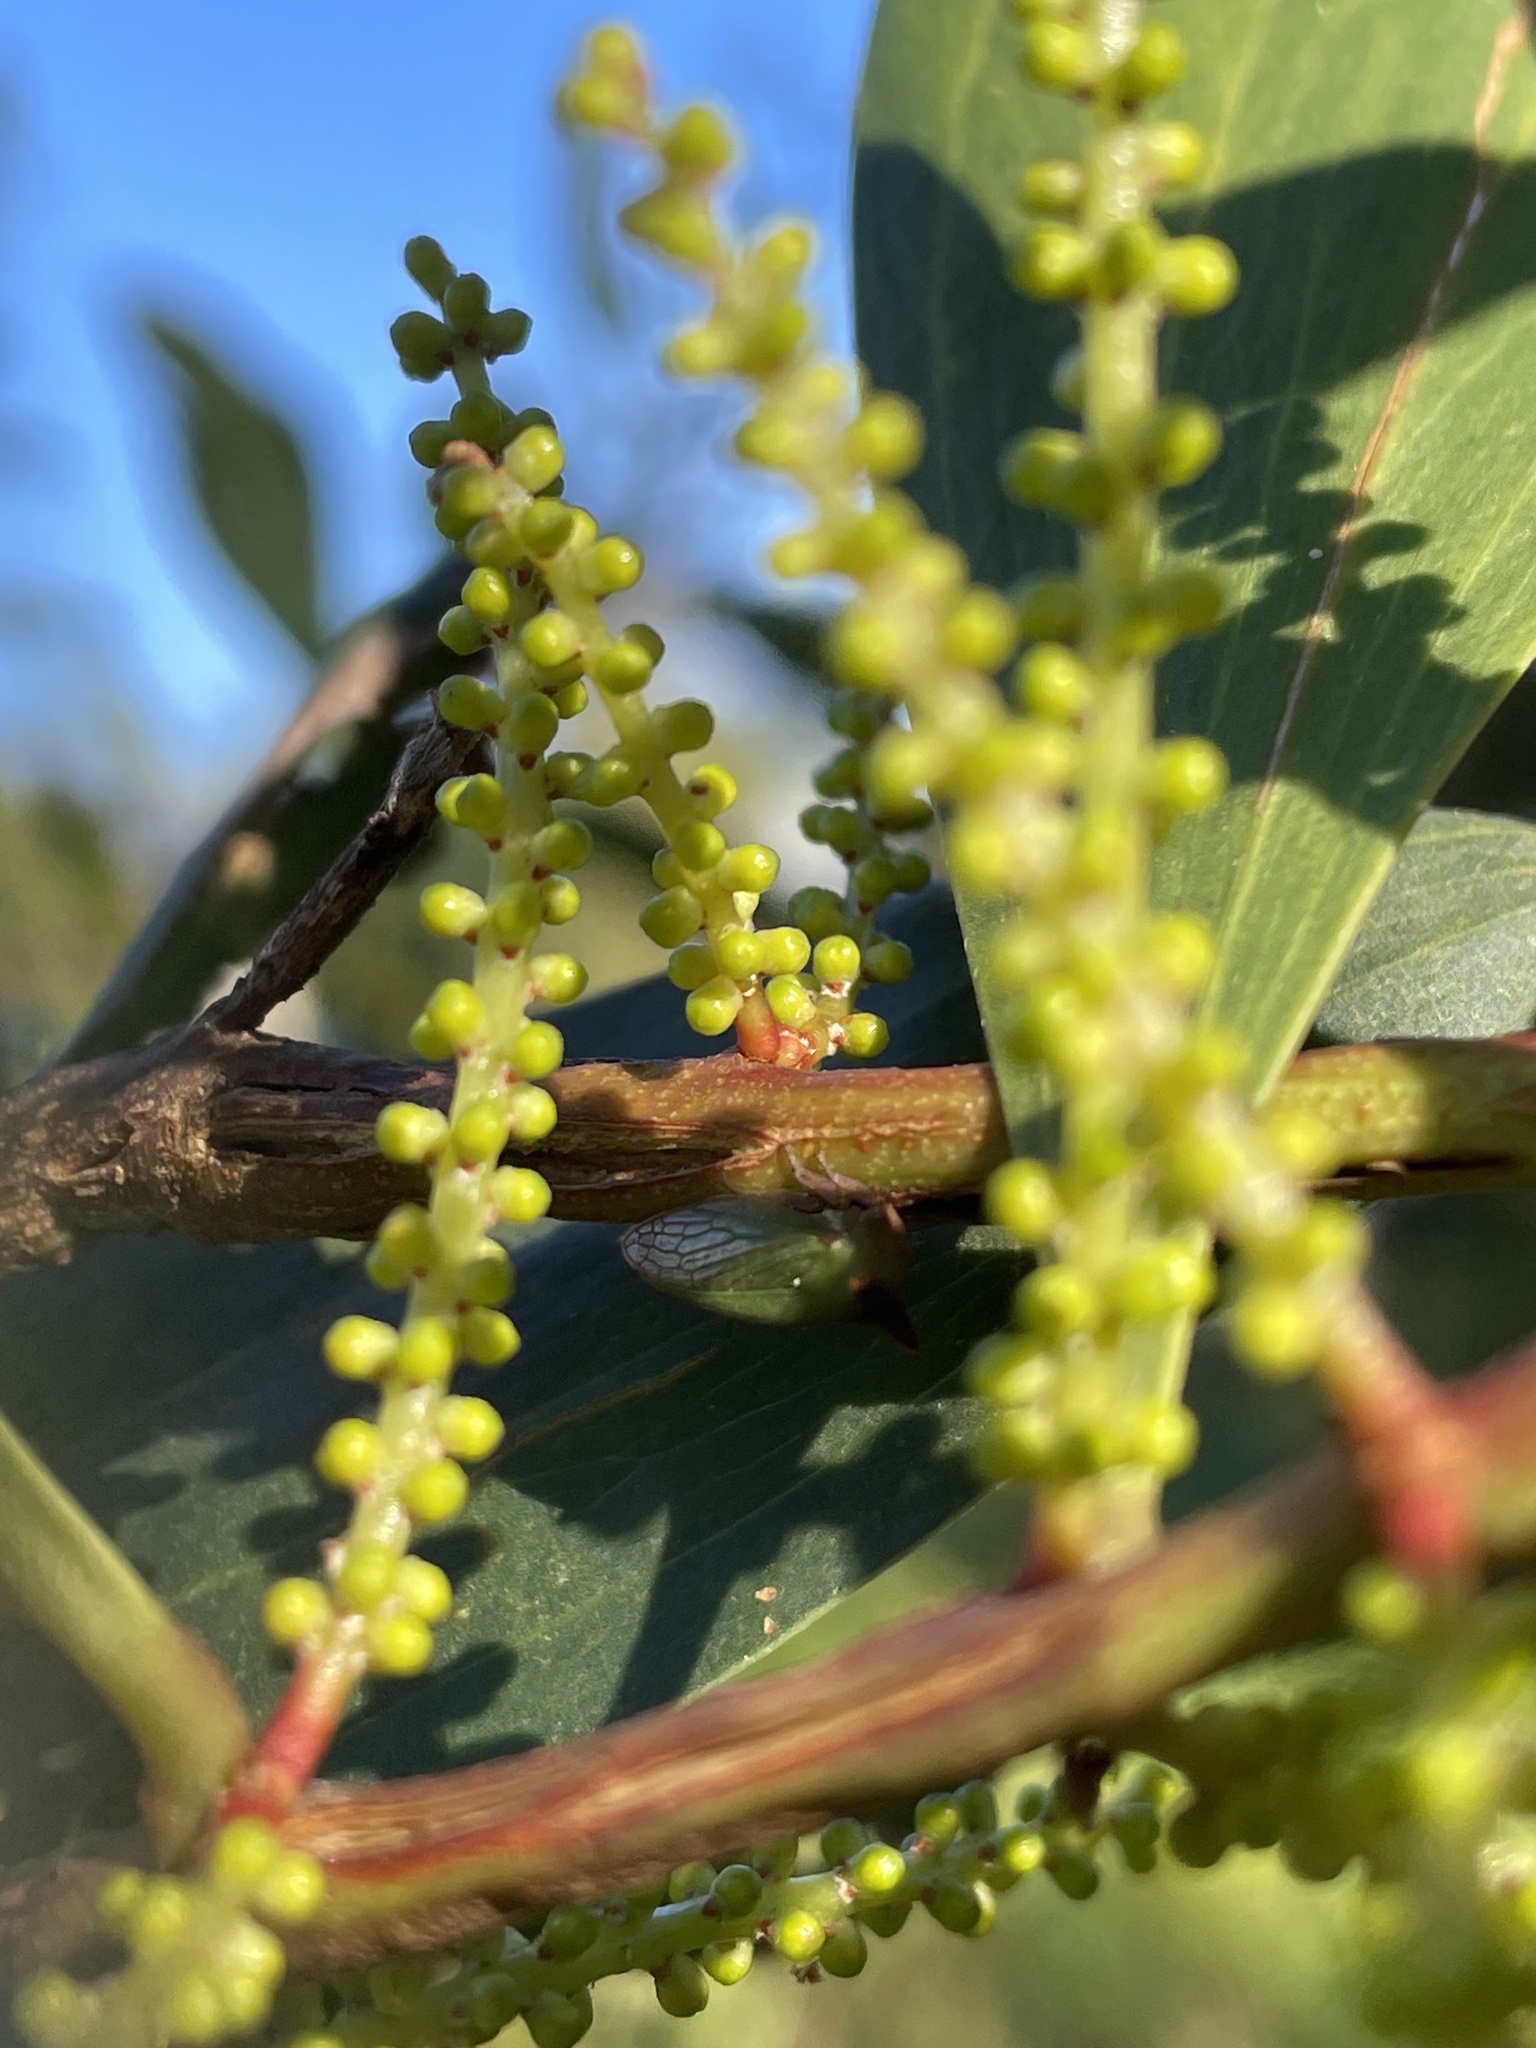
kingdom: Animalia
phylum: Arthropoda
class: Insecta
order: Hemiptera
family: Membracidae
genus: Sextius
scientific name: Sextius virescens
